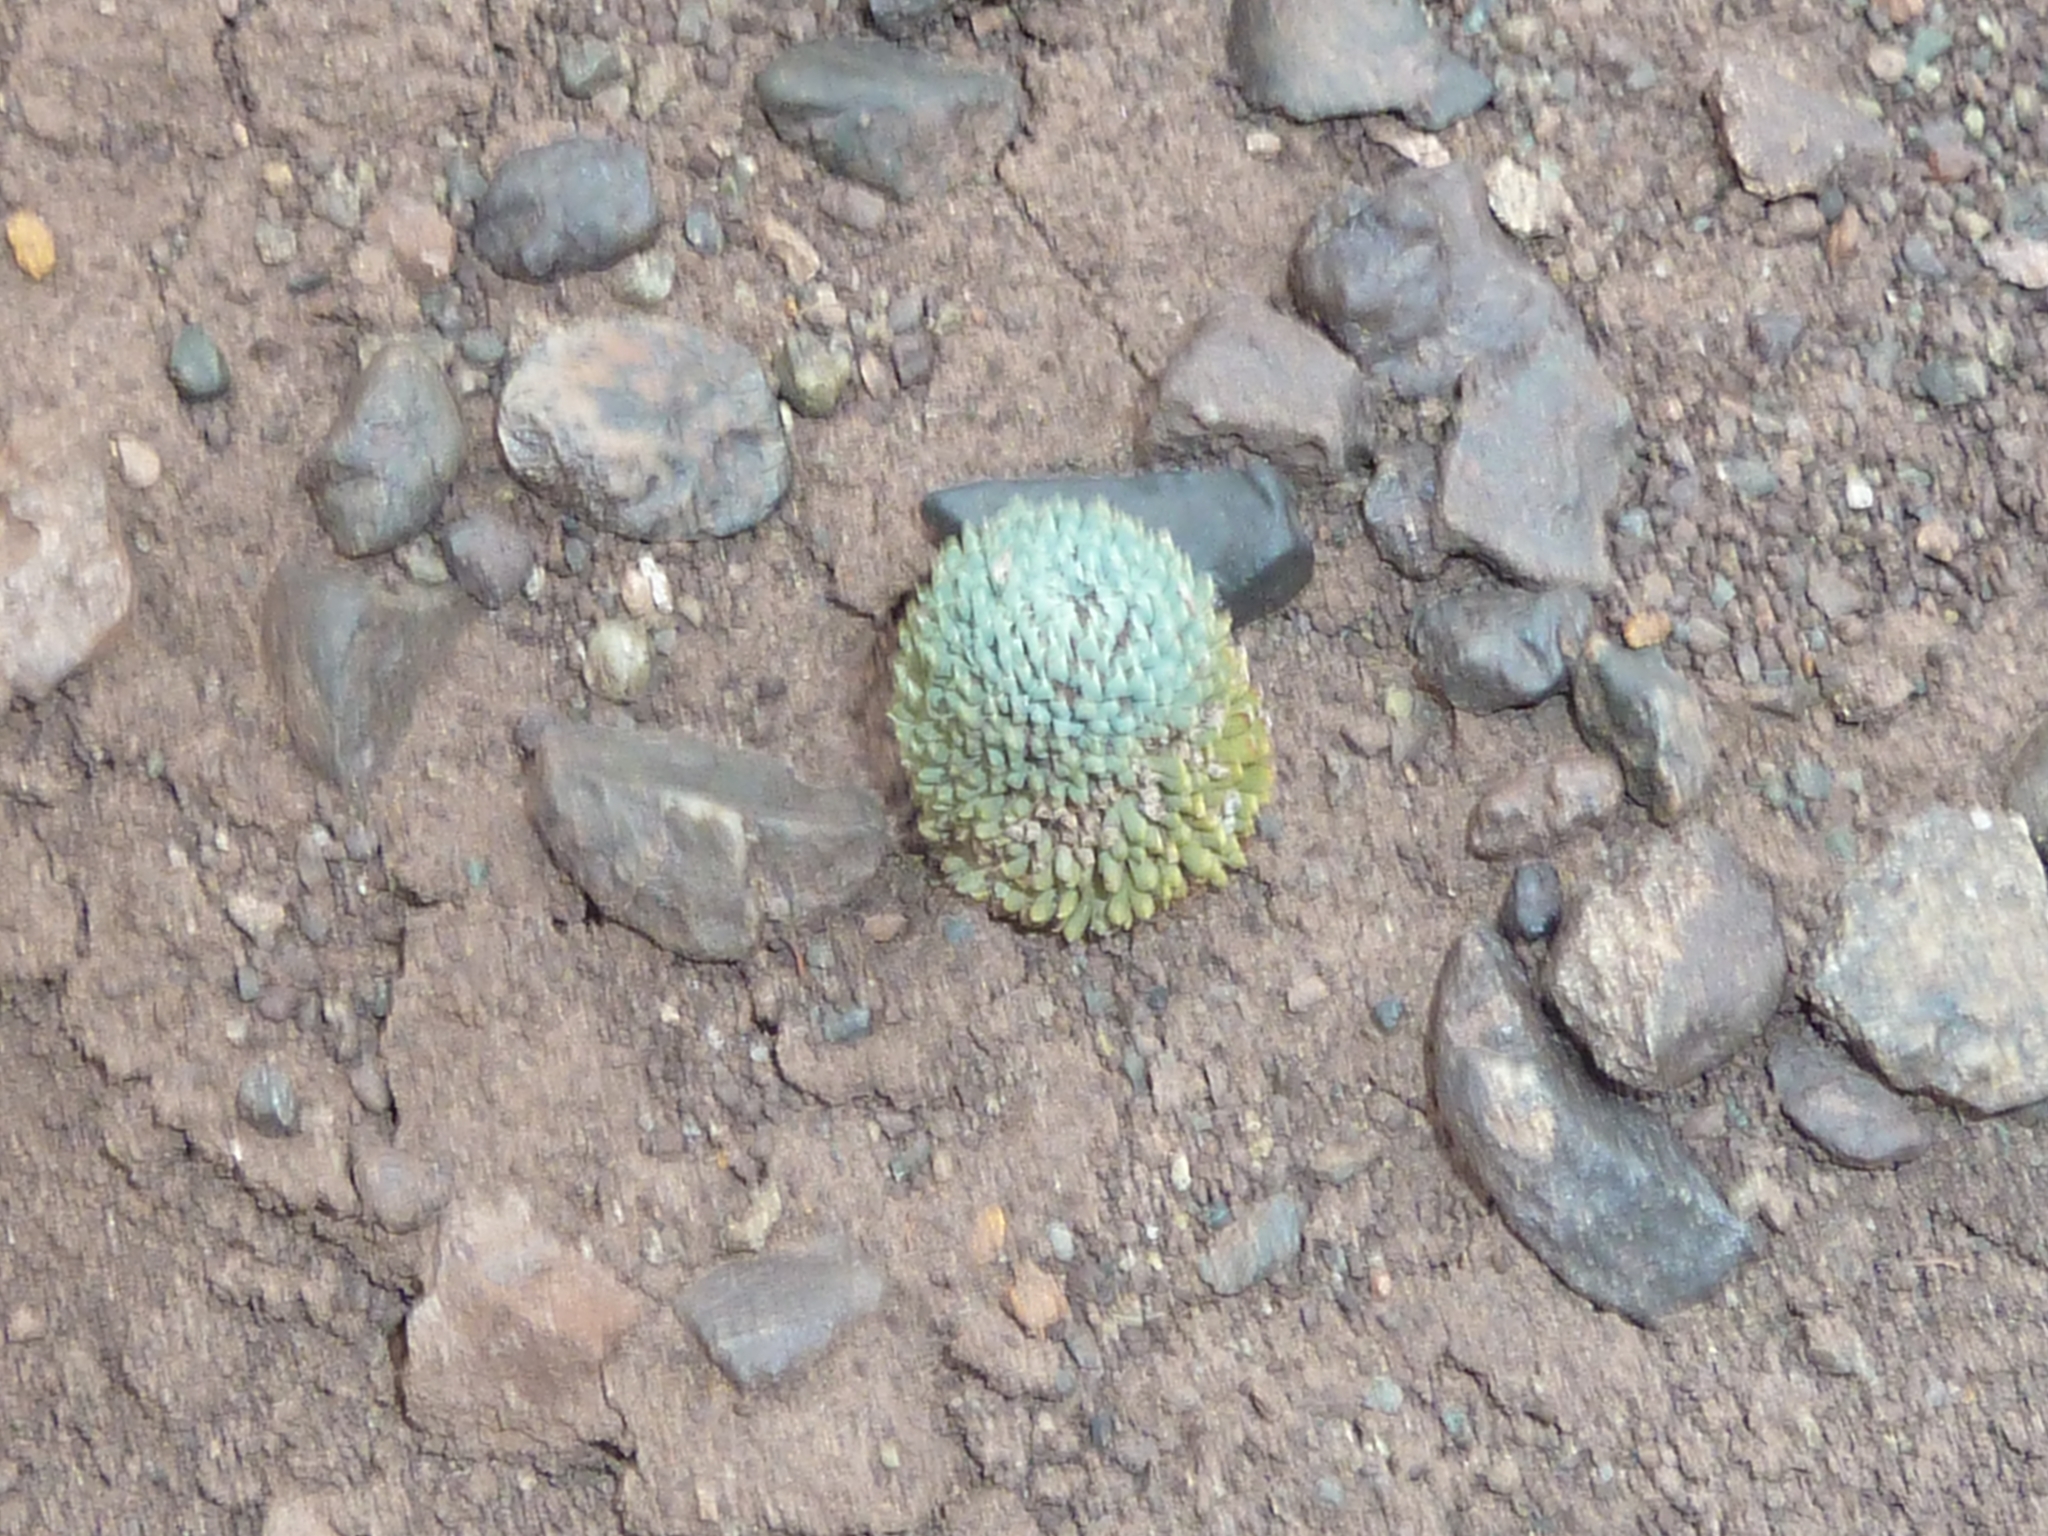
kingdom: Plantae
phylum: Tracheophyta
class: Magnoliopsida
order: Asterales
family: Calyceraceae
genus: Moschopsis
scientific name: Moschopsis trilobata
